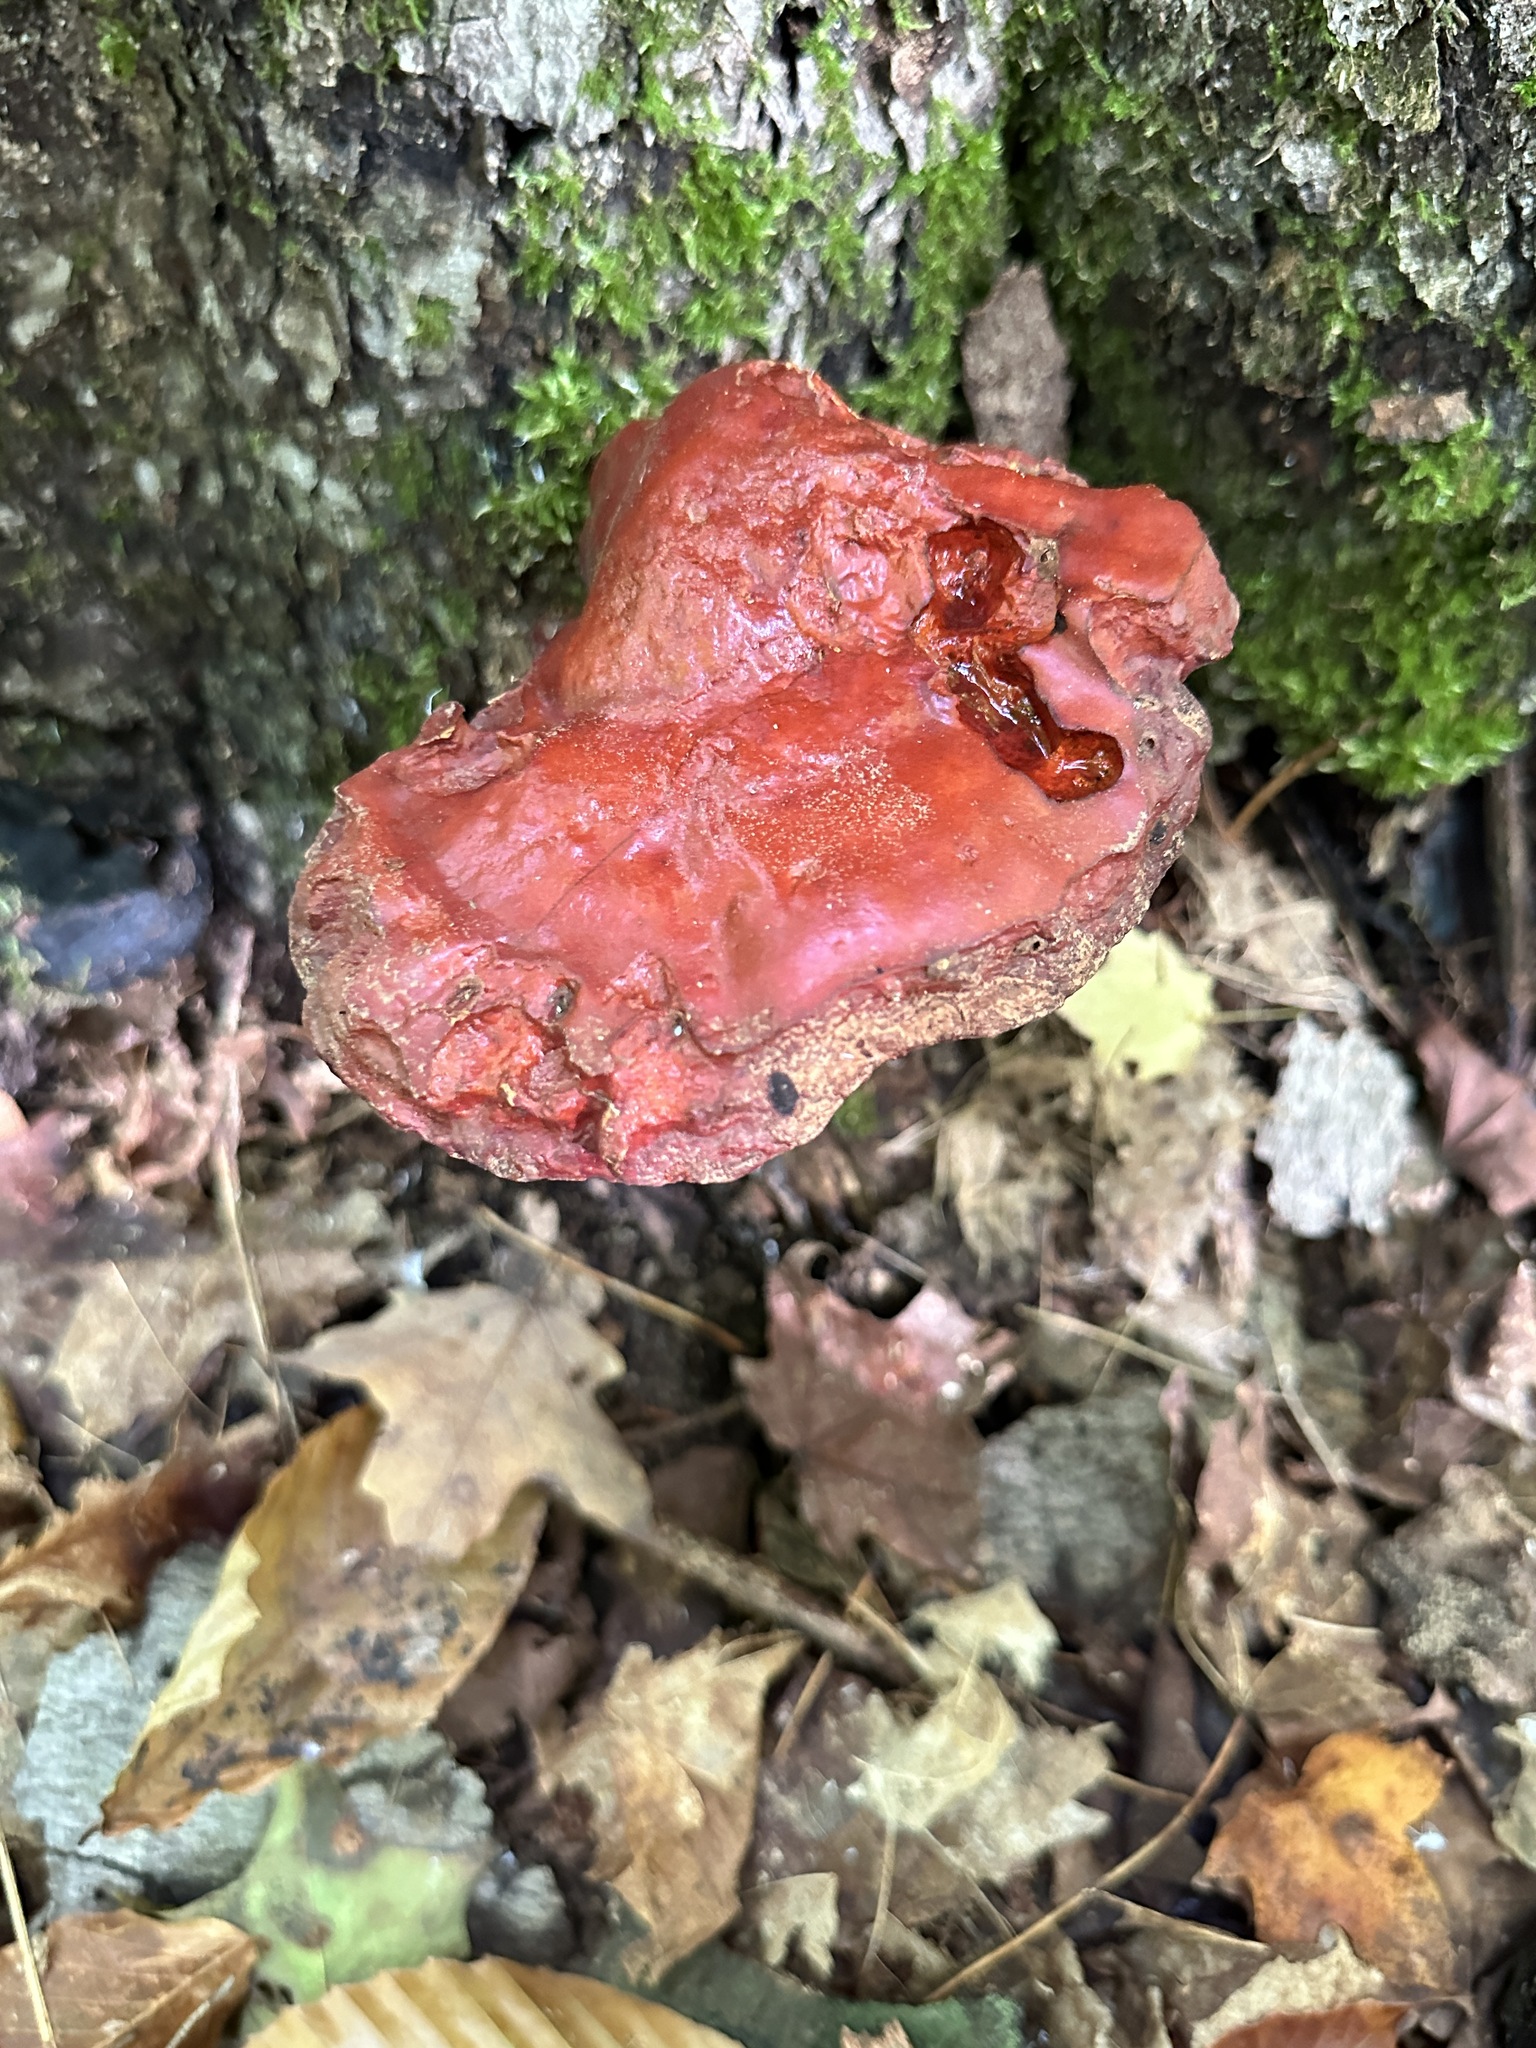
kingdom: Fungi
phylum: Basidiomycota
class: Agaricomycetes
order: Polyporales
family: Polyporaceae
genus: Ganoderma
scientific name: Ganoderma tsugae
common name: Hemlock varnish shelf
